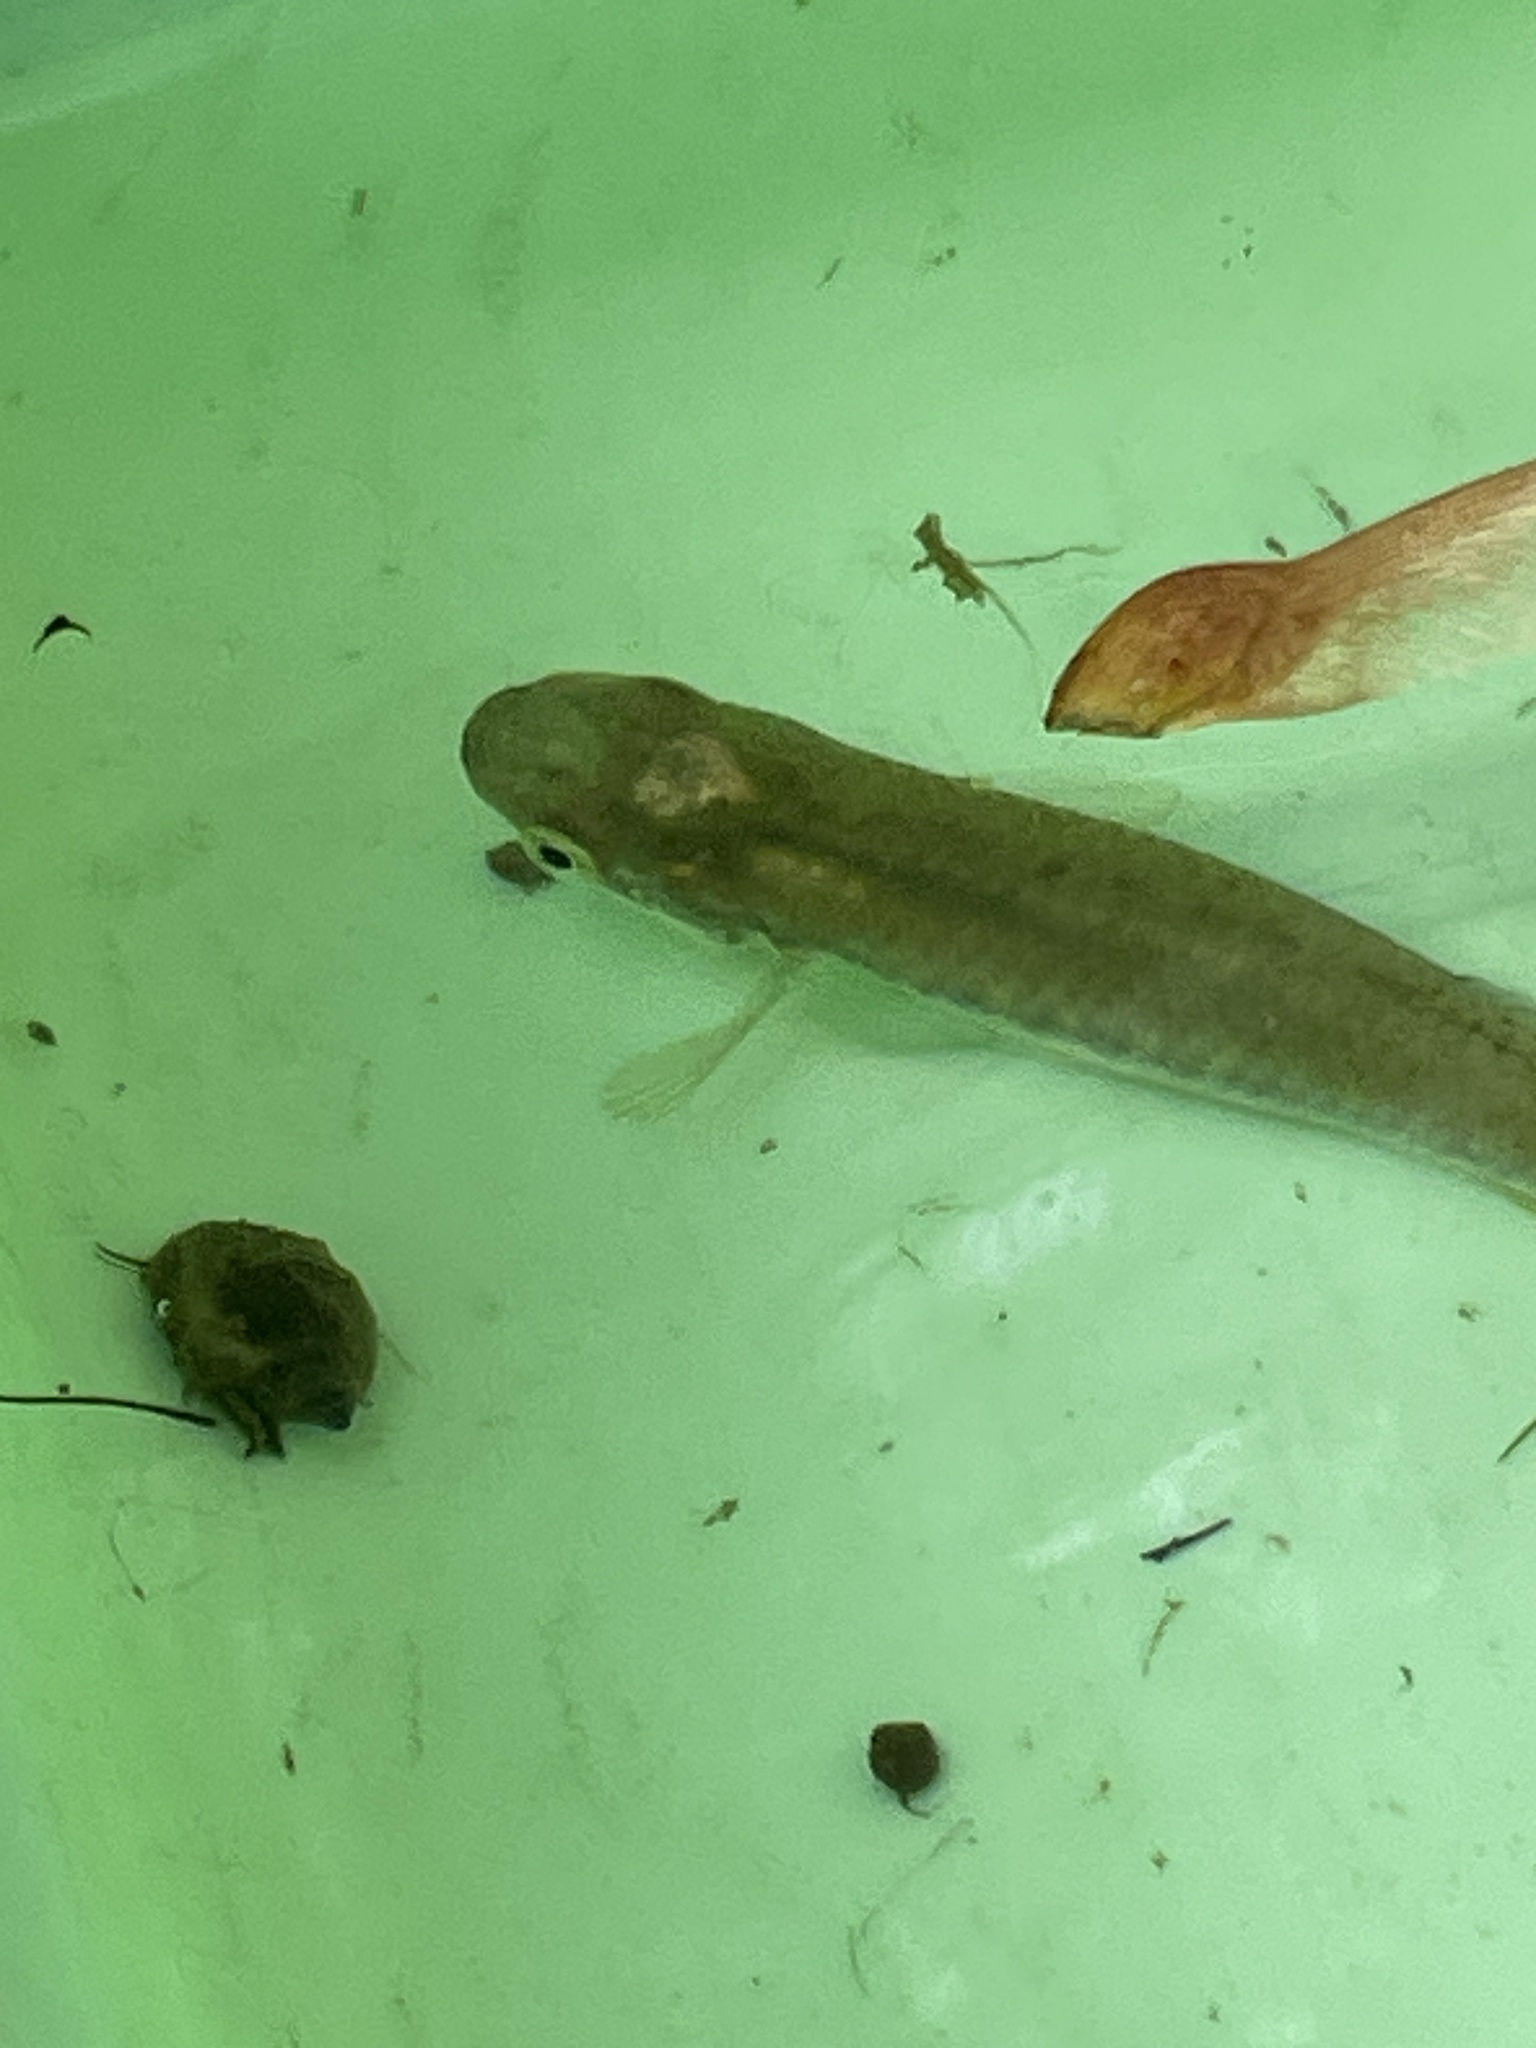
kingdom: Animalia
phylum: Chordata
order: Cyprinodontiformes
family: Fundulidae
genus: Fundulus
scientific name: Fundulus notatus
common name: Blackstripe topminnow
